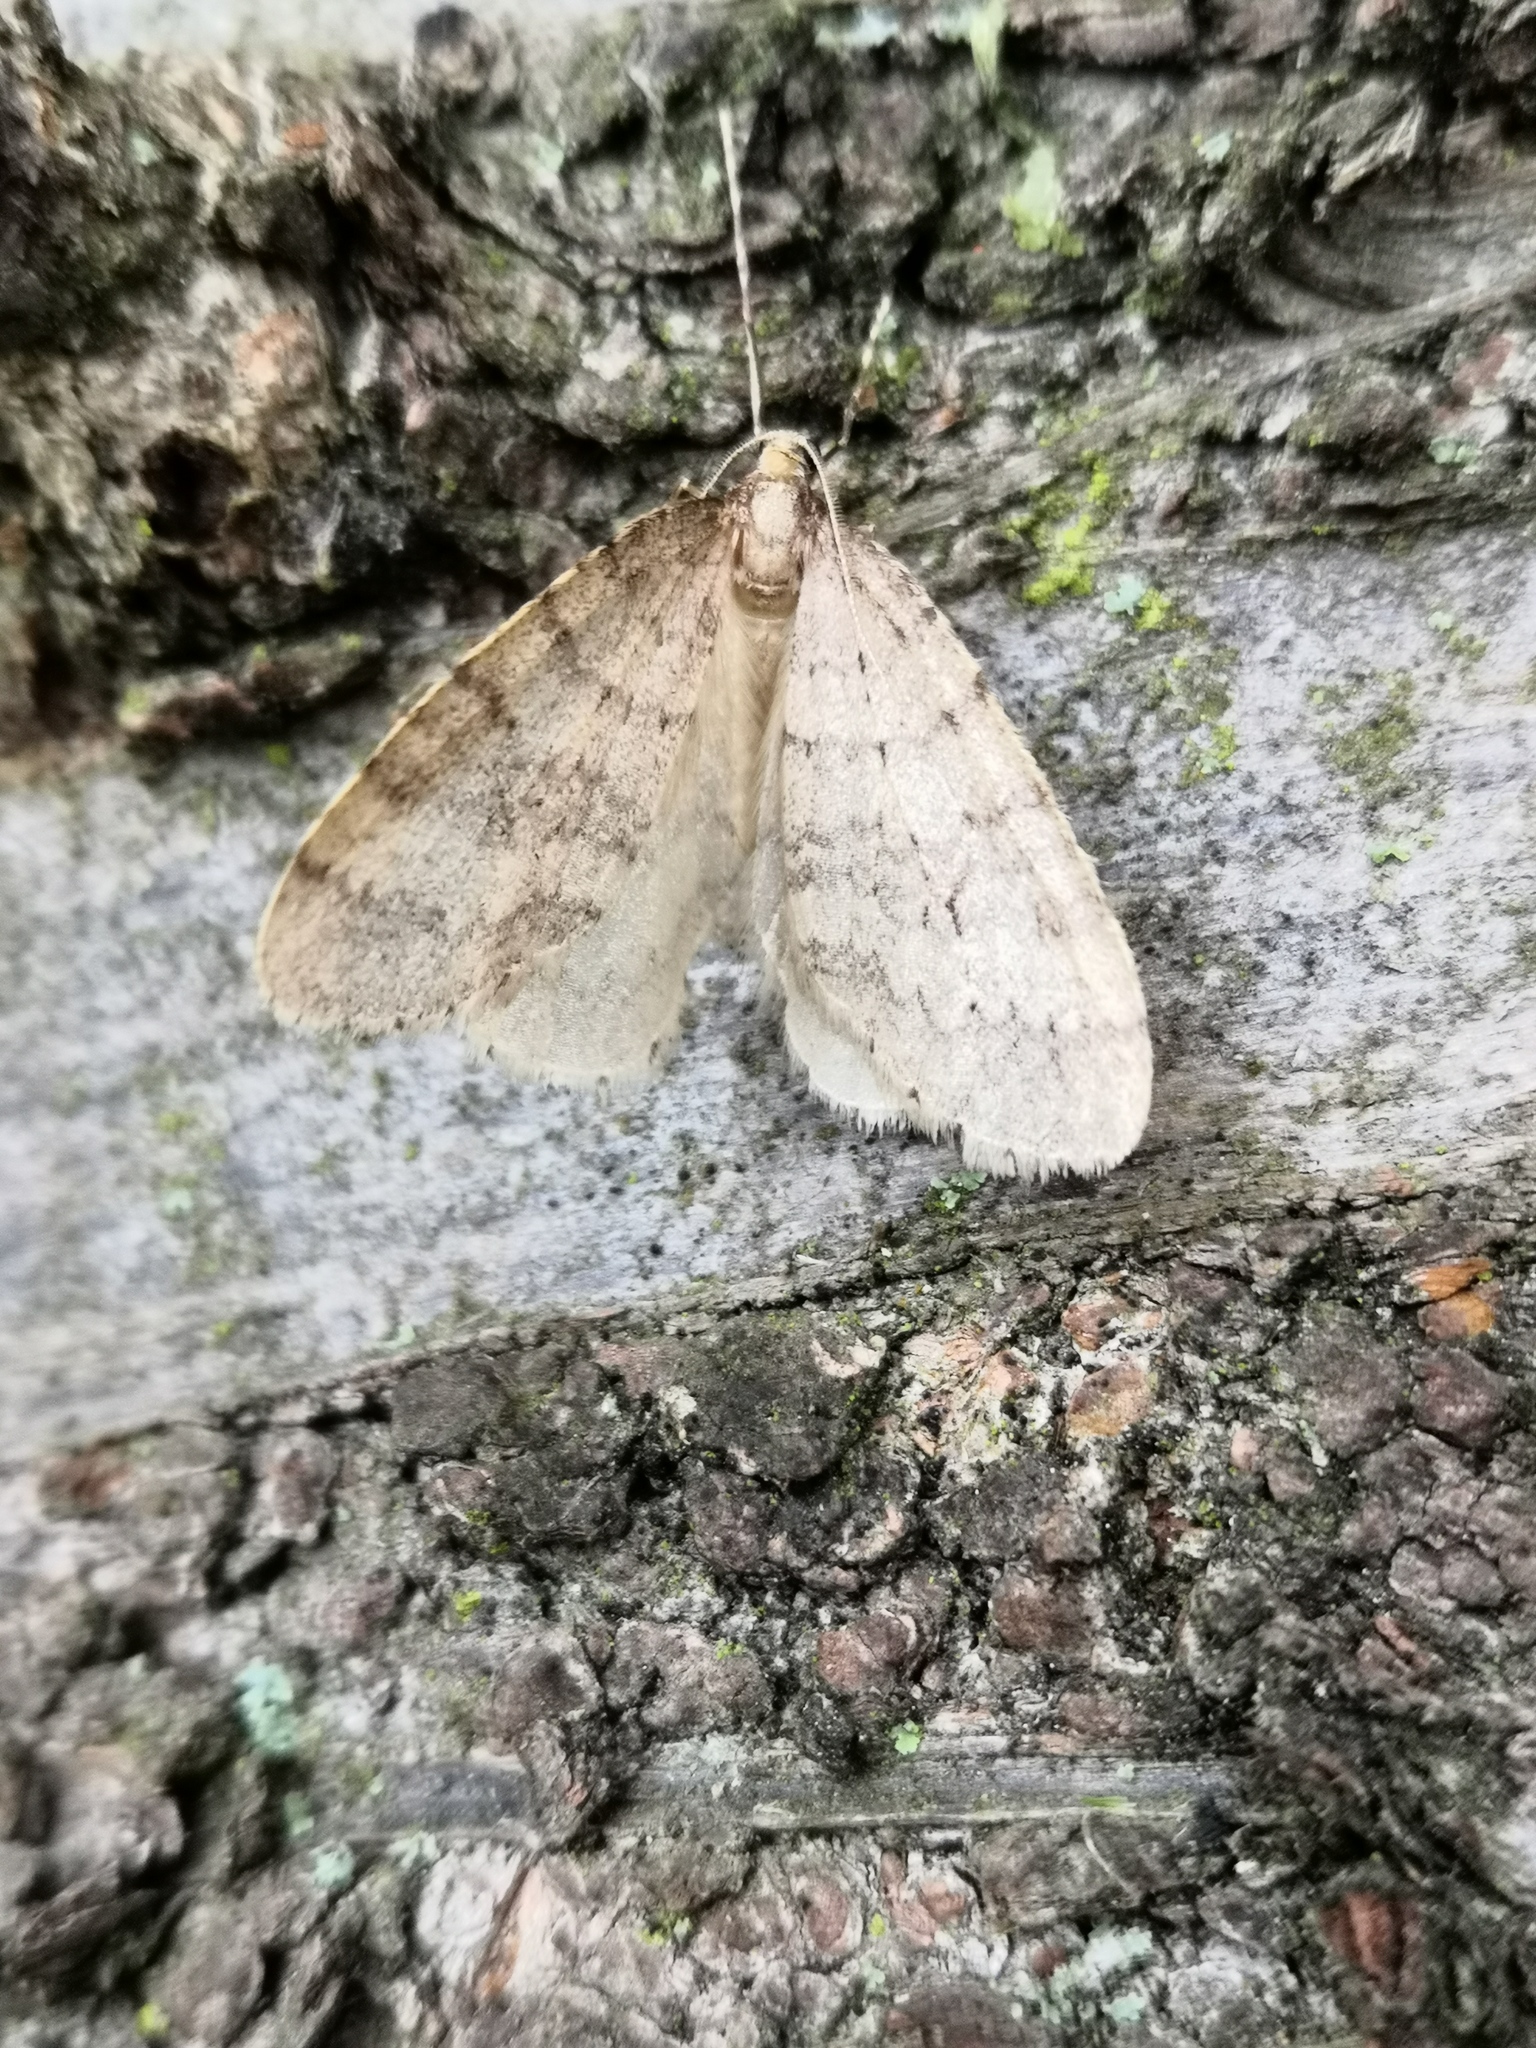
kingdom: Animalia
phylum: Arthropoda
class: Insecta
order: Lepidoptera
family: Geometridae
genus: Operophtera
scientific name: Operophtera brumata
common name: Winter moth
